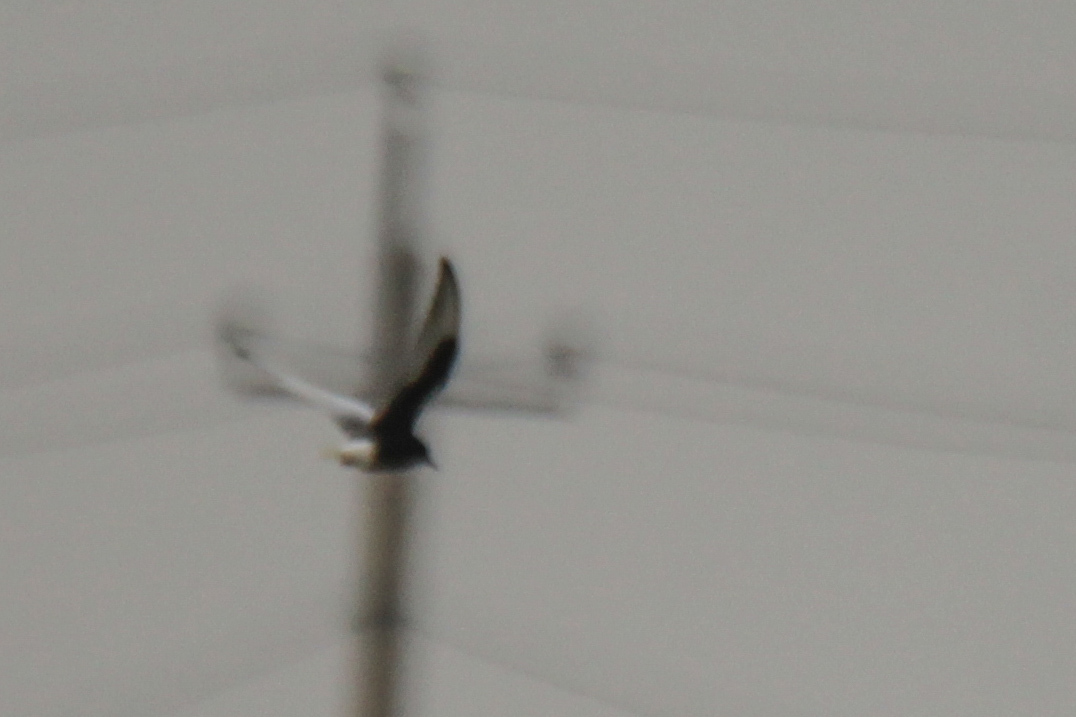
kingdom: Animalia
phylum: Chordata
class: Aves
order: Charadriiformes
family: Laridae
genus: Chlidonias
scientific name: Chlidonias leucopterus
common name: White-winged tern
